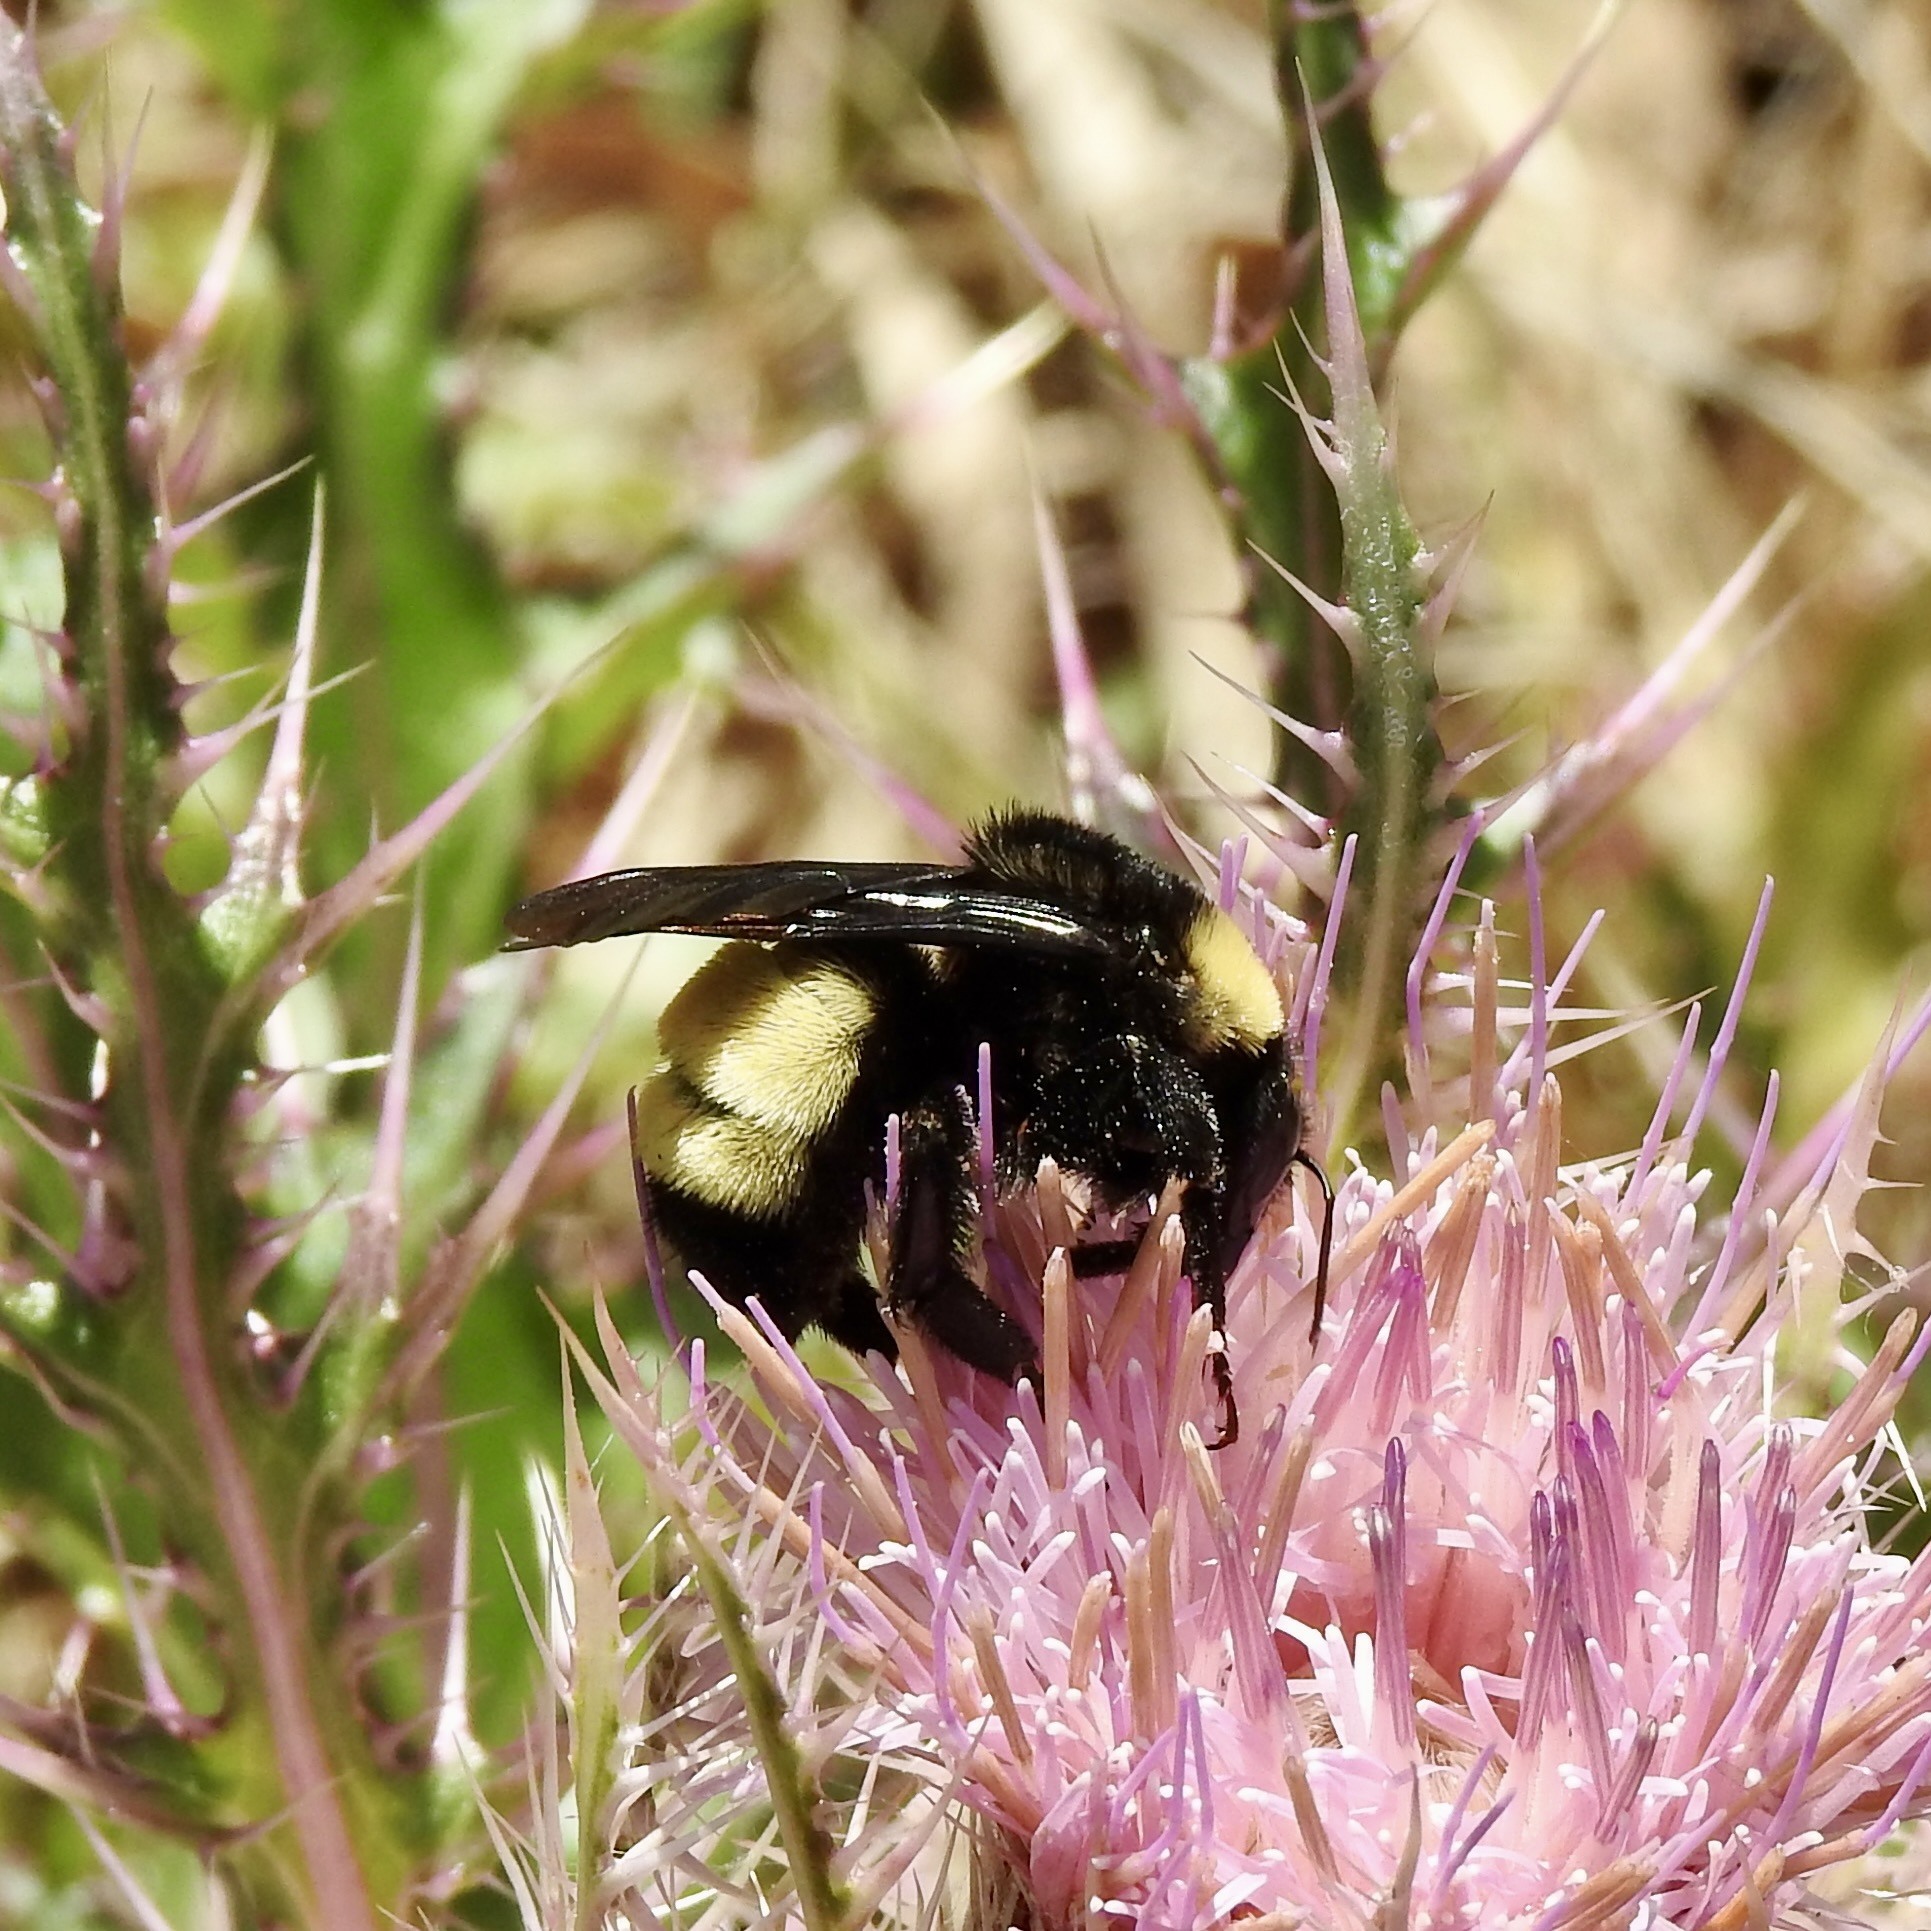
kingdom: Animalia
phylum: Arthropoda
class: Insecta
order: Hymenoptera
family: Apidae
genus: Bombus
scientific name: Bombus pensylvanicus
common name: Bumble bee
